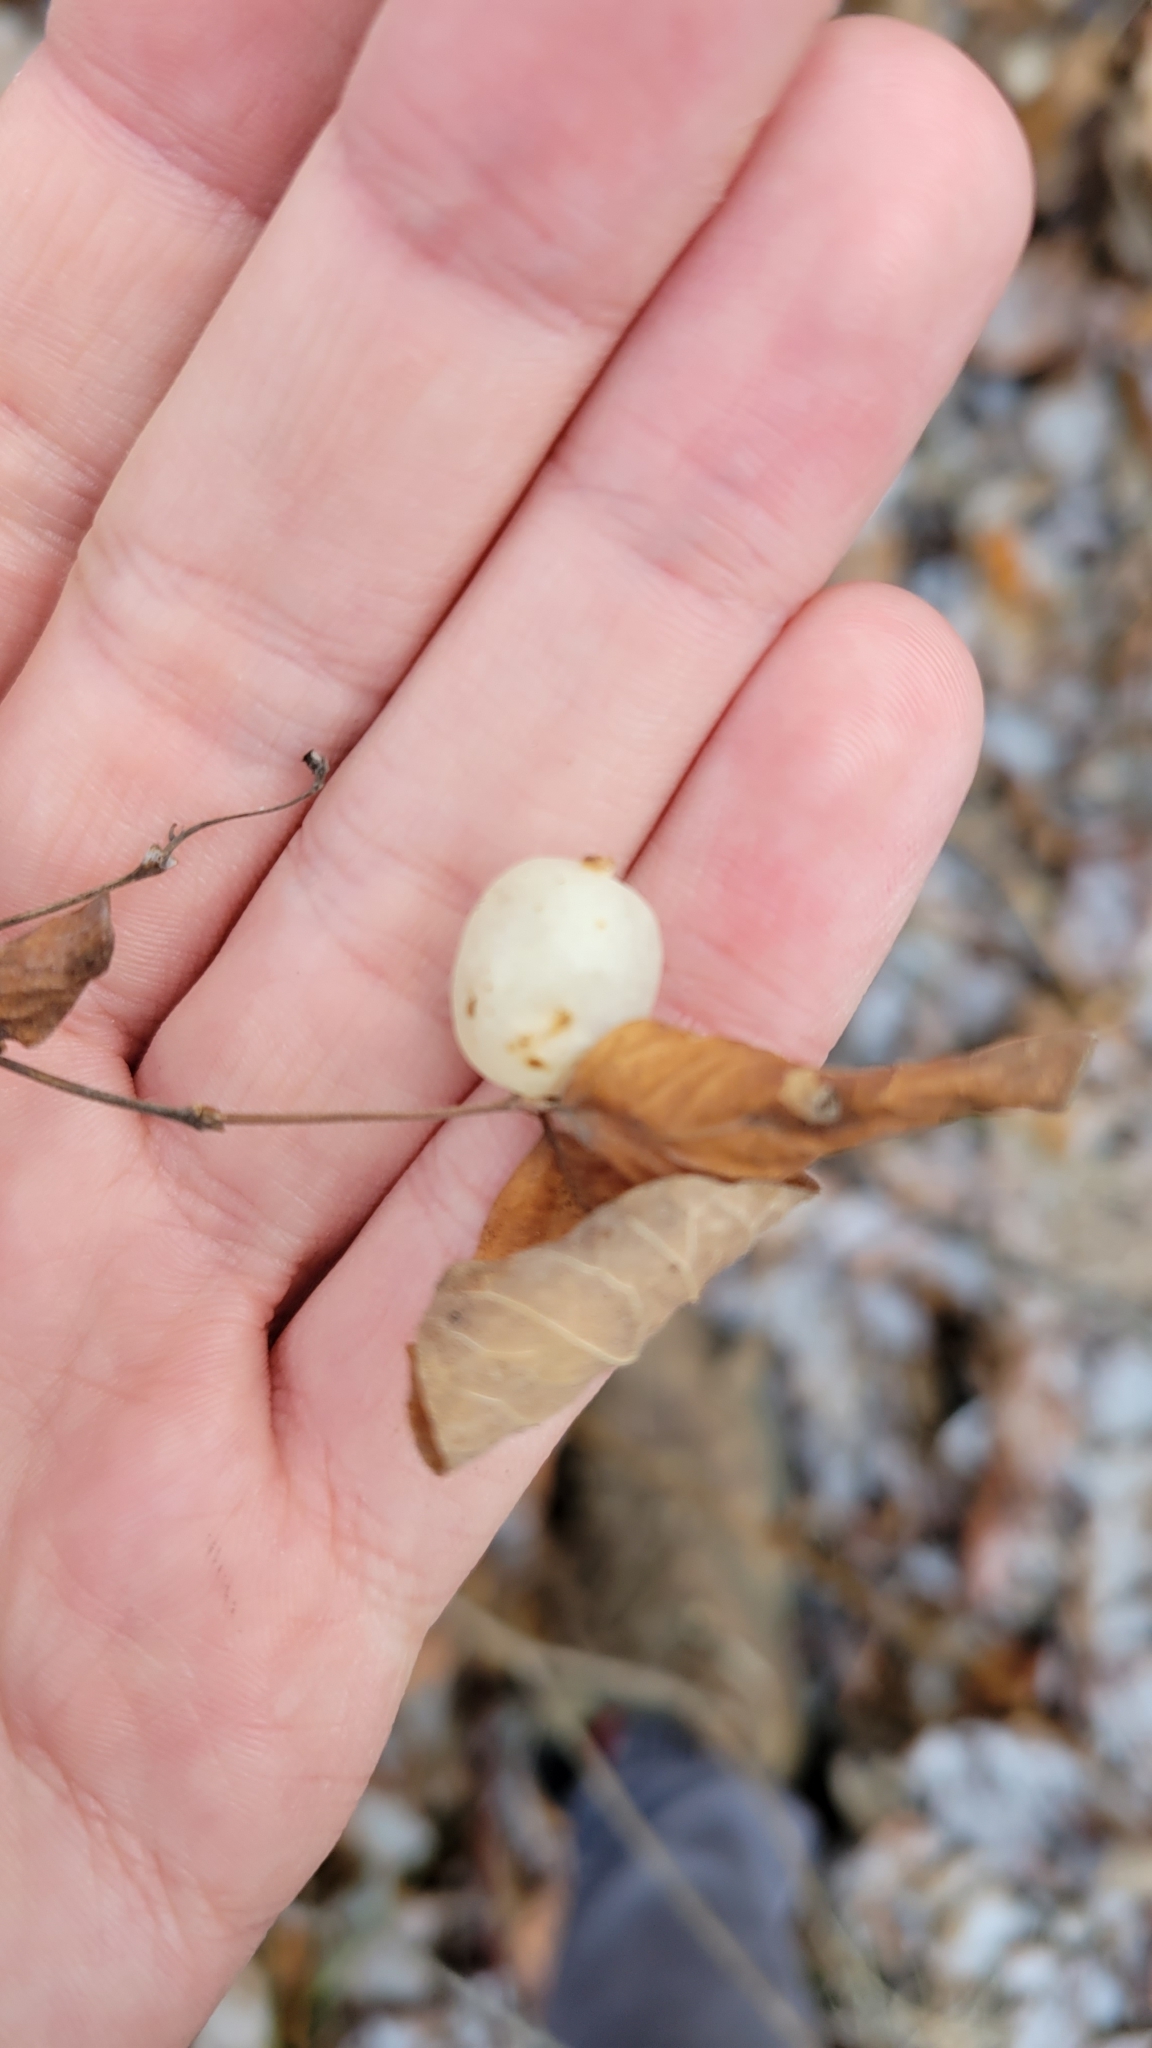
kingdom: Plantae
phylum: Tracheophyta
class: Magnoliopsida
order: Dipsacales
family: Caprifoliaceae
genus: Symphoricarpos
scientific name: Symphoricarpos albus
